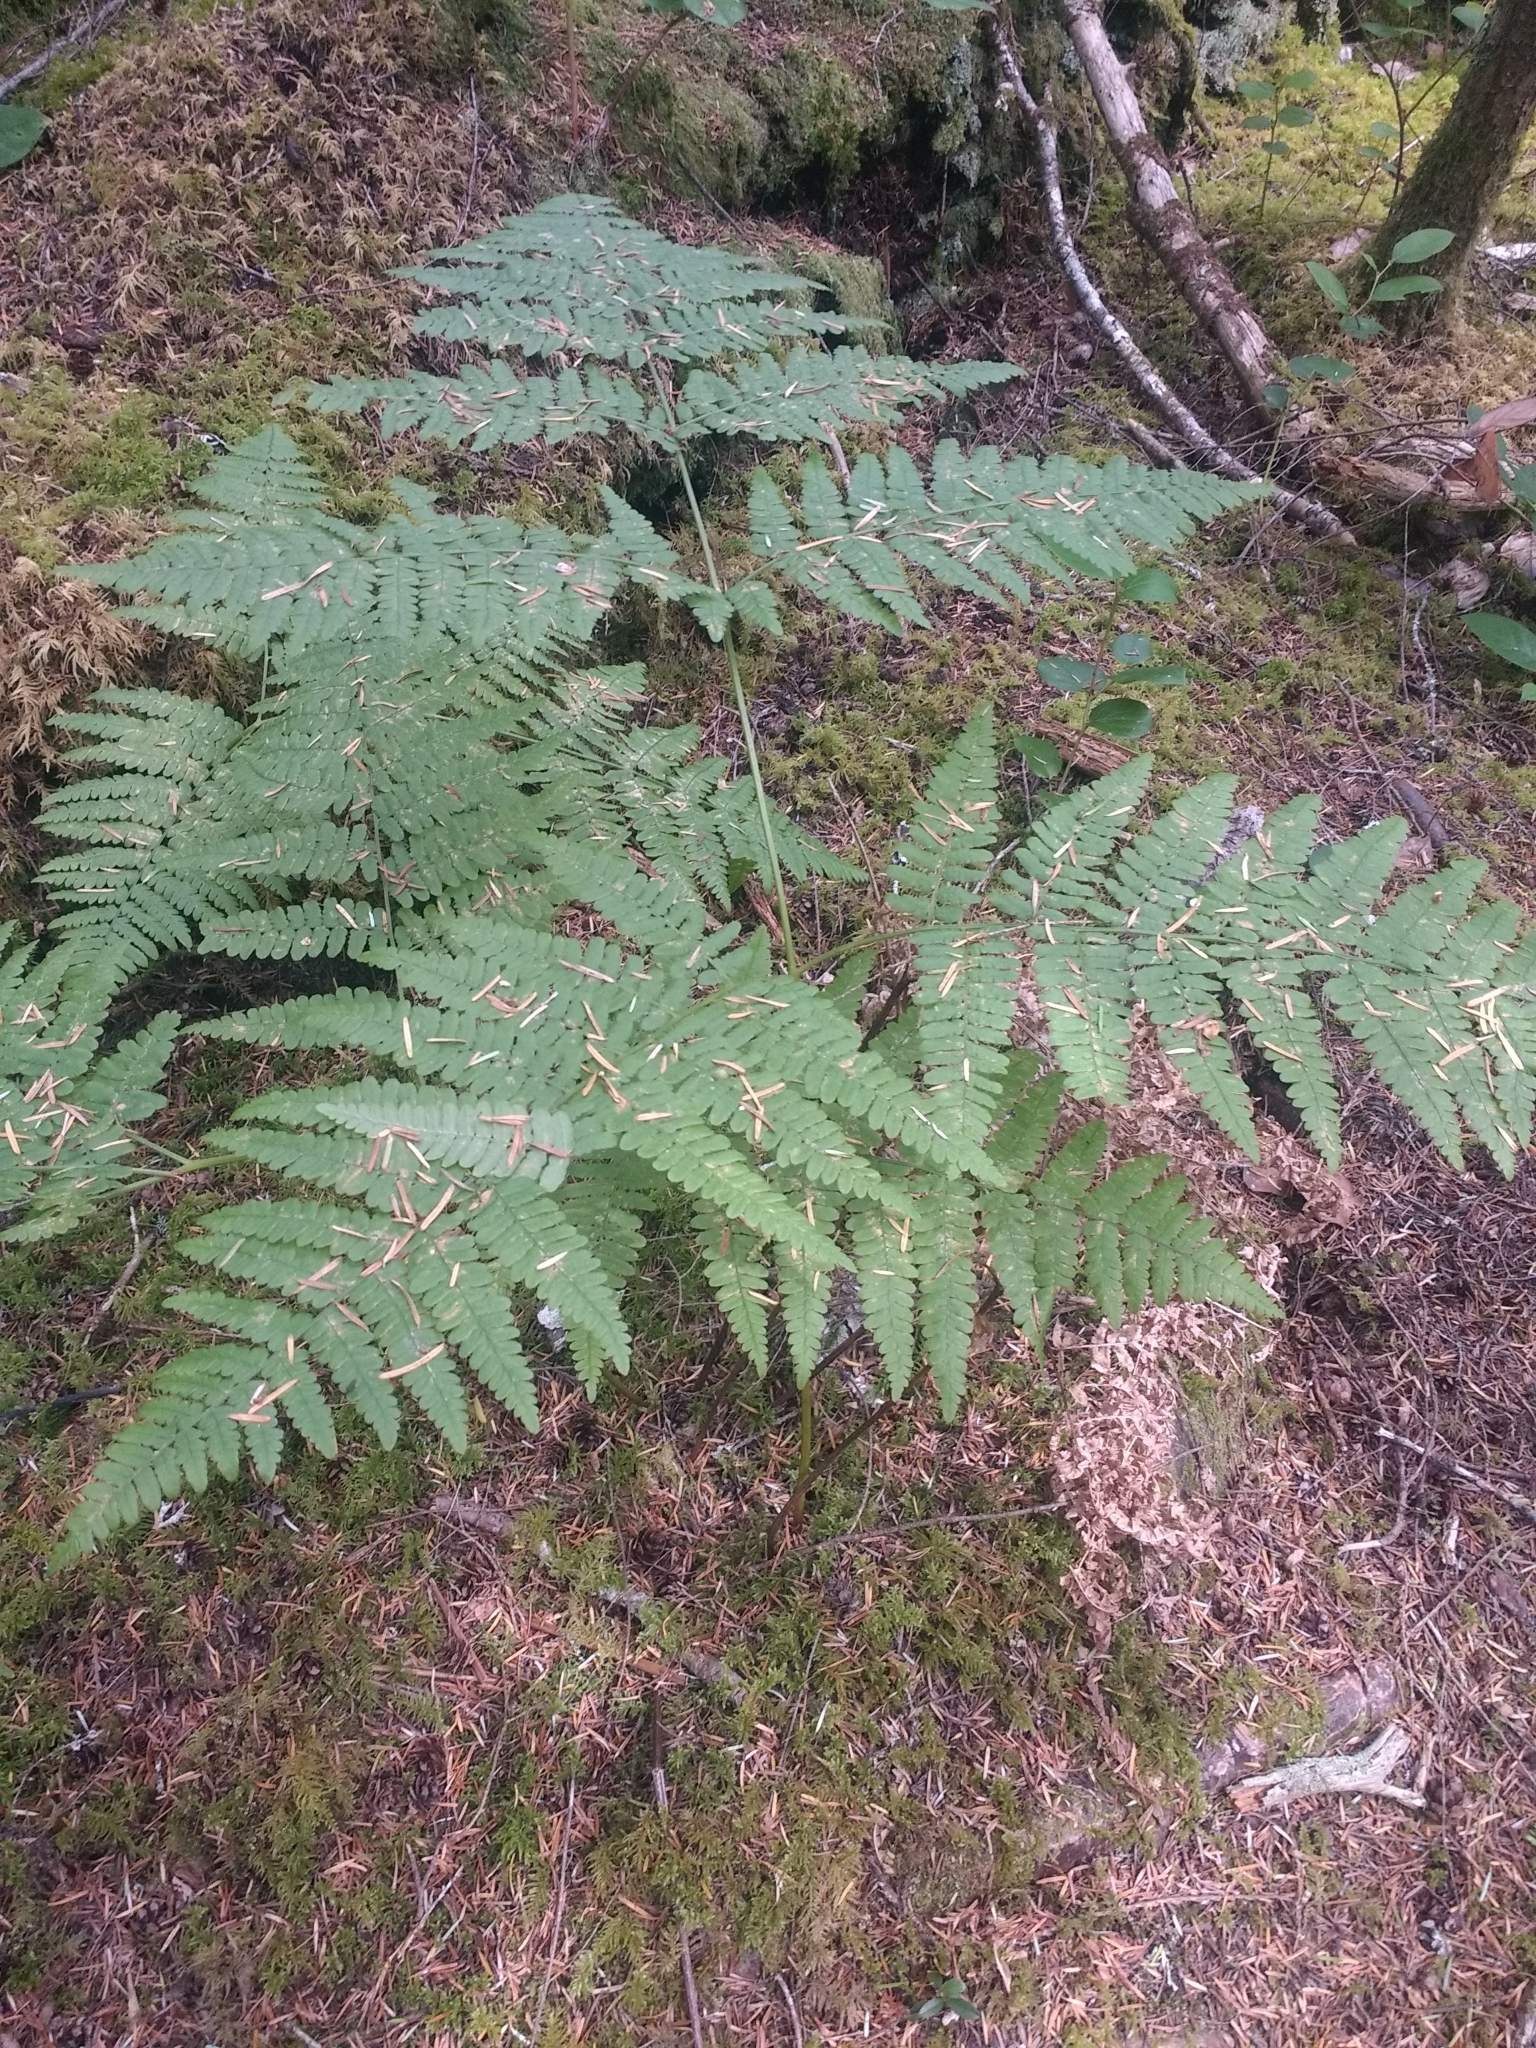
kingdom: Plantae
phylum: Tracheophyta
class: Polypodiopsida
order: Polypodiales
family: Dennstaedtiaceae
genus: Pteridium
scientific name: Pteridium aquilinum
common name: Bracken
